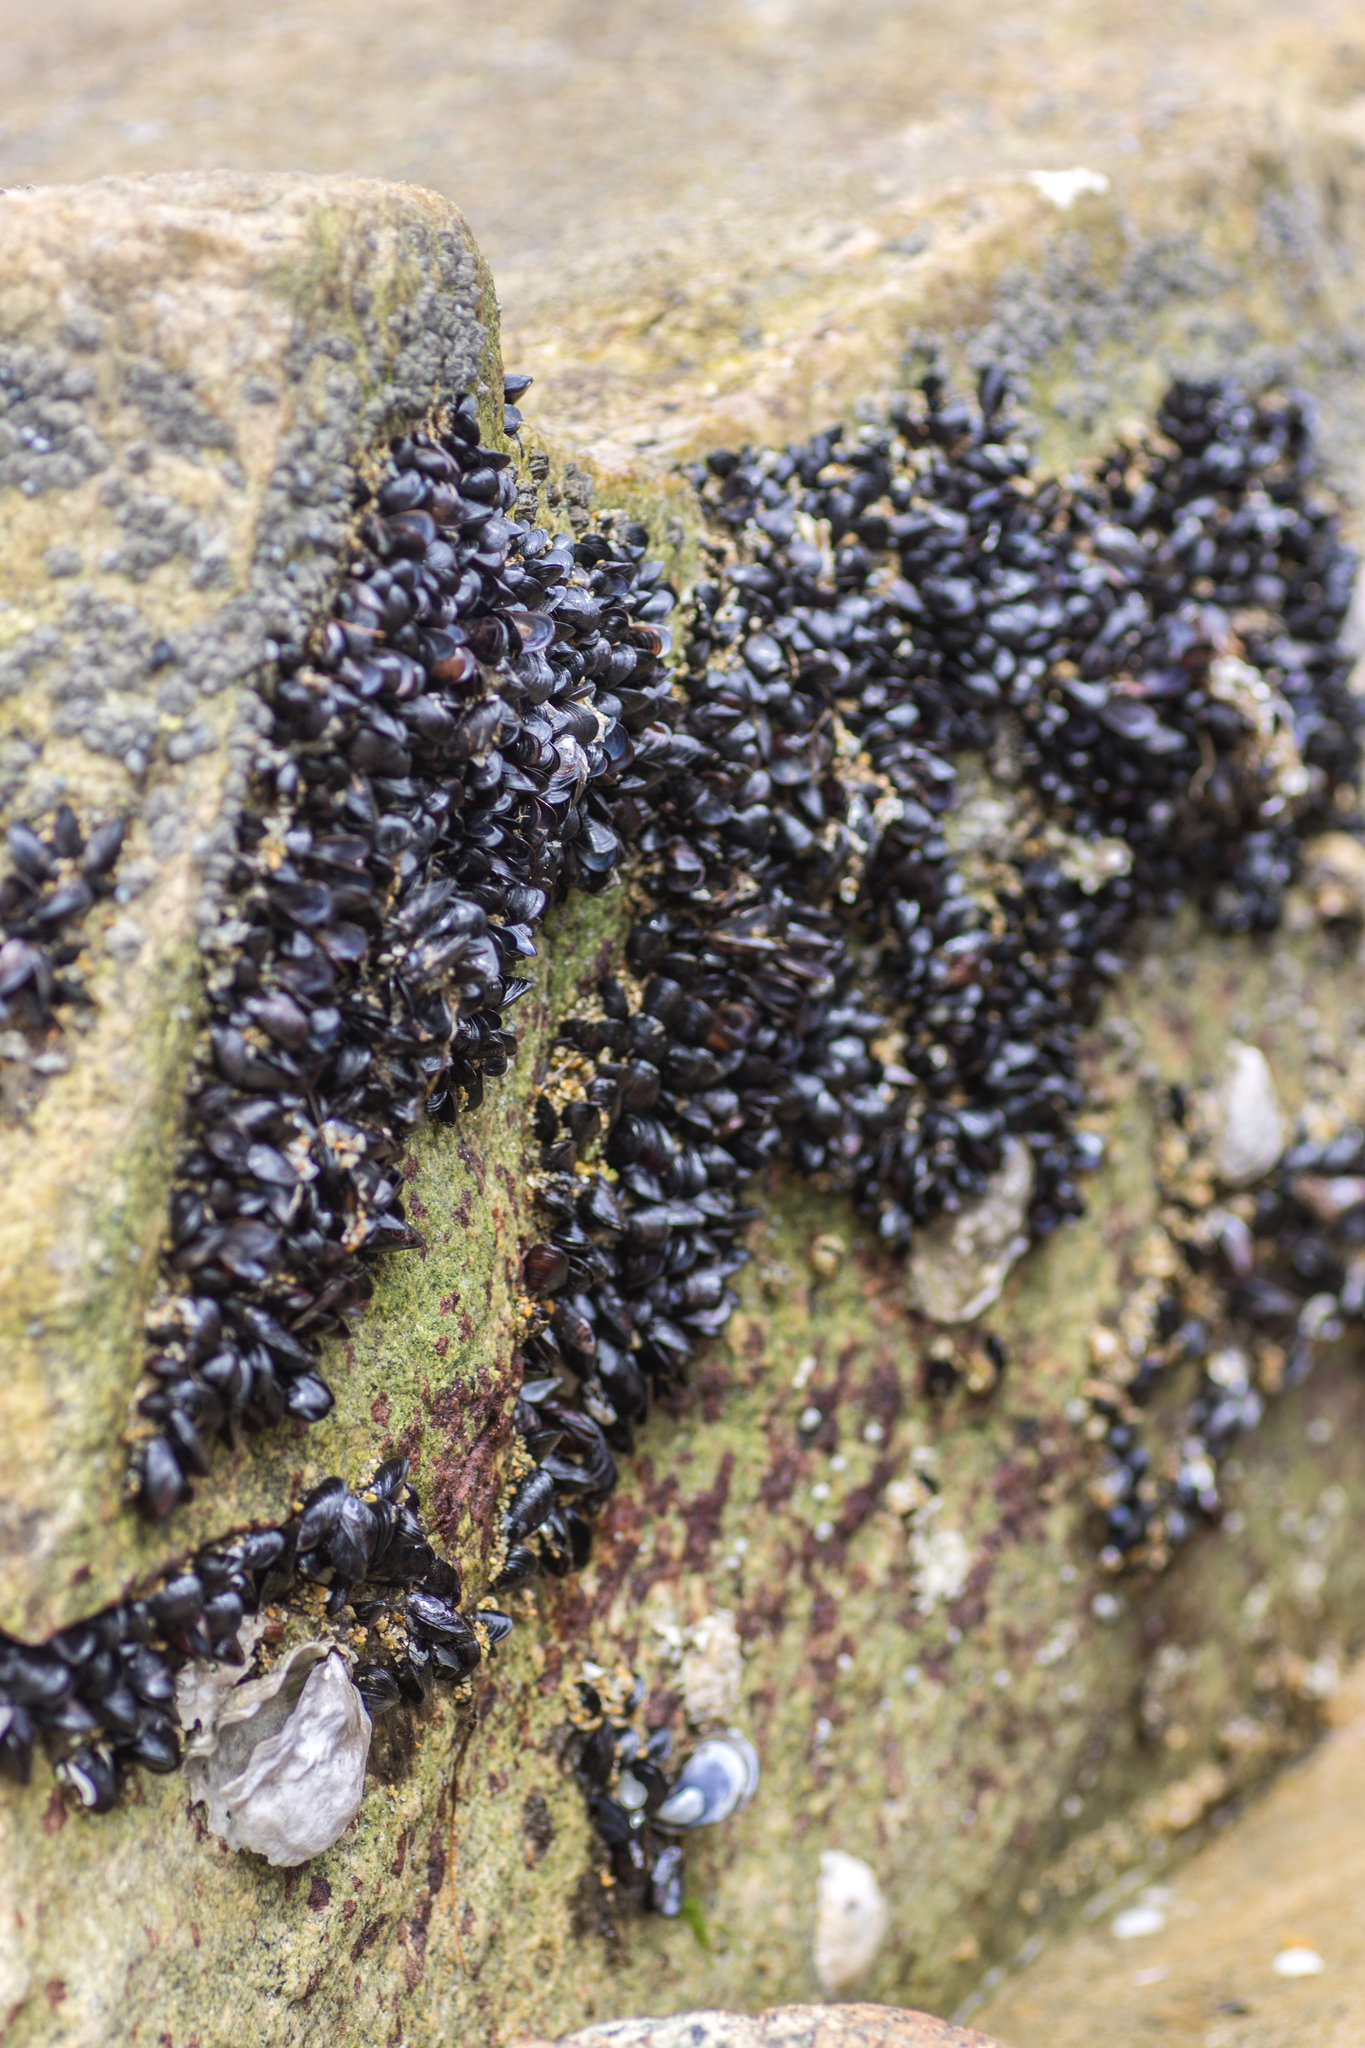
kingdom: Animalia
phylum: Mollusca
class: Bivalvia
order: Mytilida
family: Mytilidae
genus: Xenostrobus
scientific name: Xenostrobus neozelanicus
